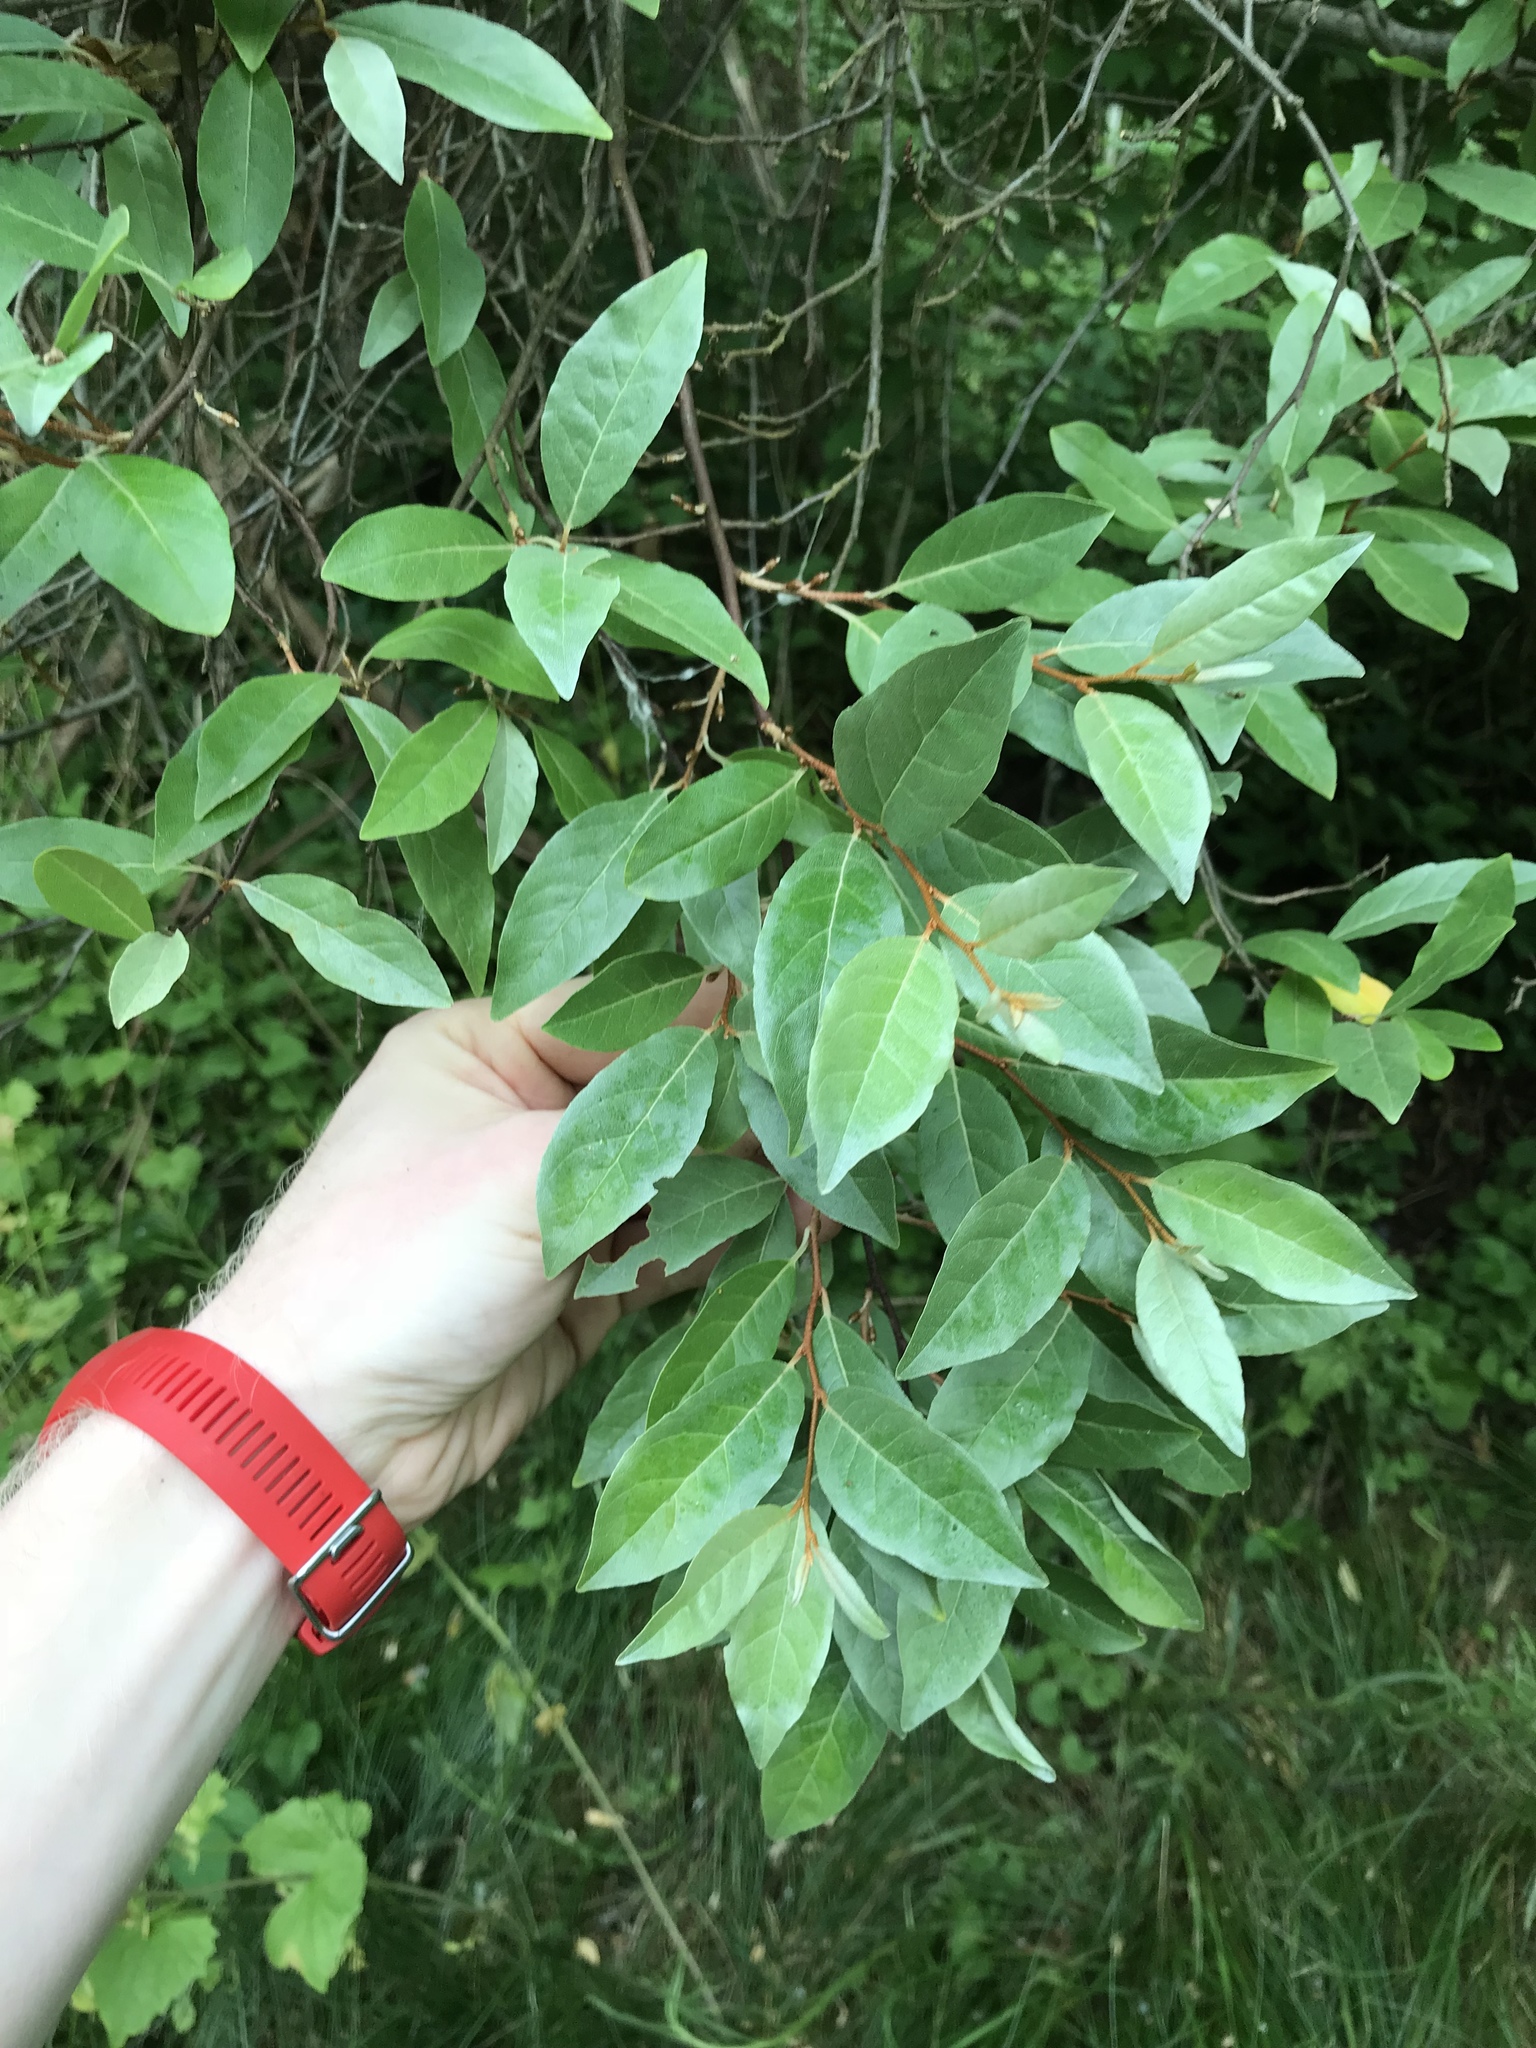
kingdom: Plantae
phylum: Tracheophyta
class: Magnoliopsida
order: Rosales
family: Elaeagnaceae
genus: Elaeagnus
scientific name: Elaeagnus umbellata
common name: Autumn olive
